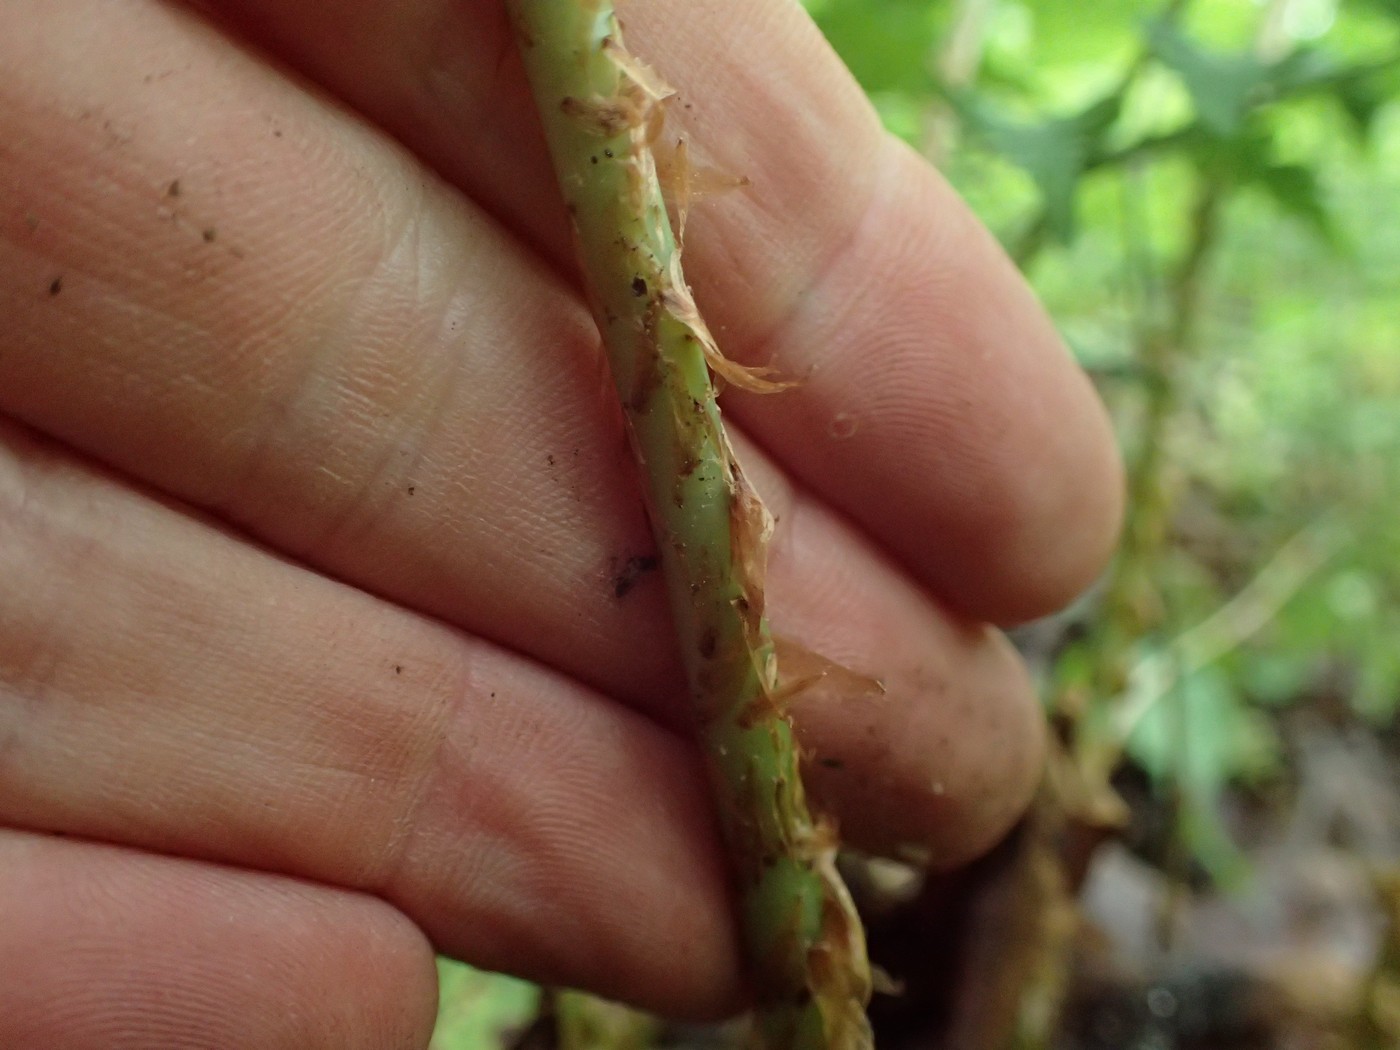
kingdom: Plantae
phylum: Tracheophyta
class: Polypodiopsida
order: Polypodiales
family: Dryopteridaceae
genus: Dryopteris
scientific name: Dryopteris marginalis
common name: Marginal wood fern
